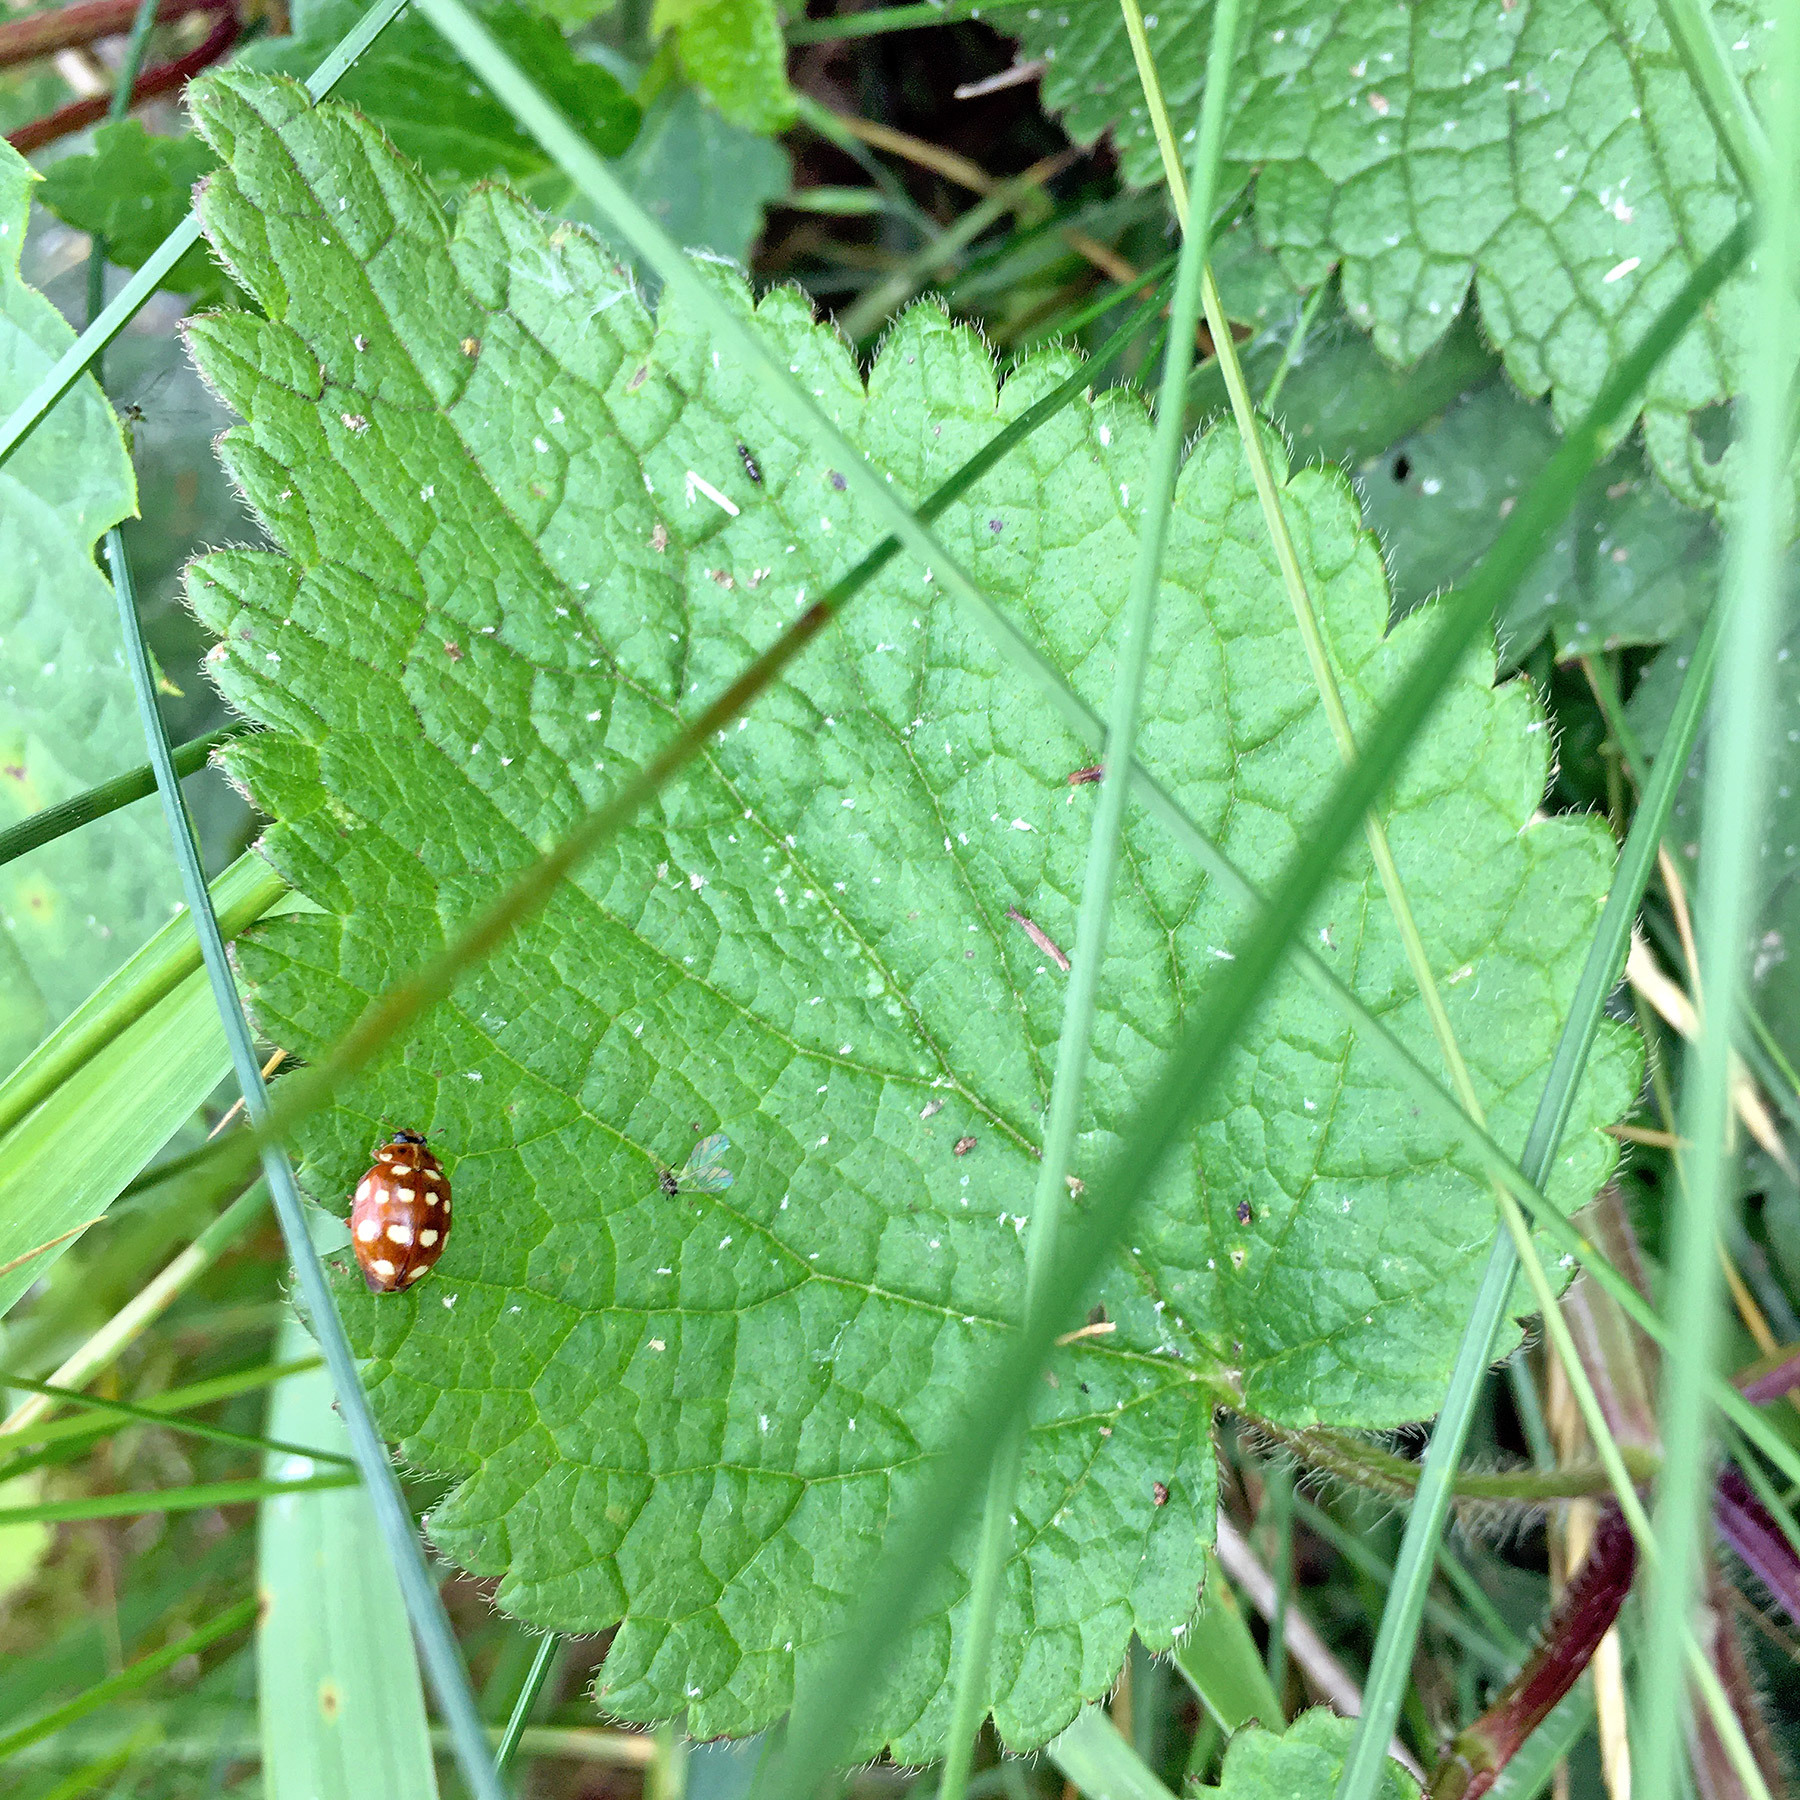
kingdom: Animalia
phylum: Arthropoda
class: Insecta
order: Coleoptera
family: Coccinellidae
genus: Calvia
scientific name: Calvia quatuordecimguttata
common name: Cream-spot ladybird
